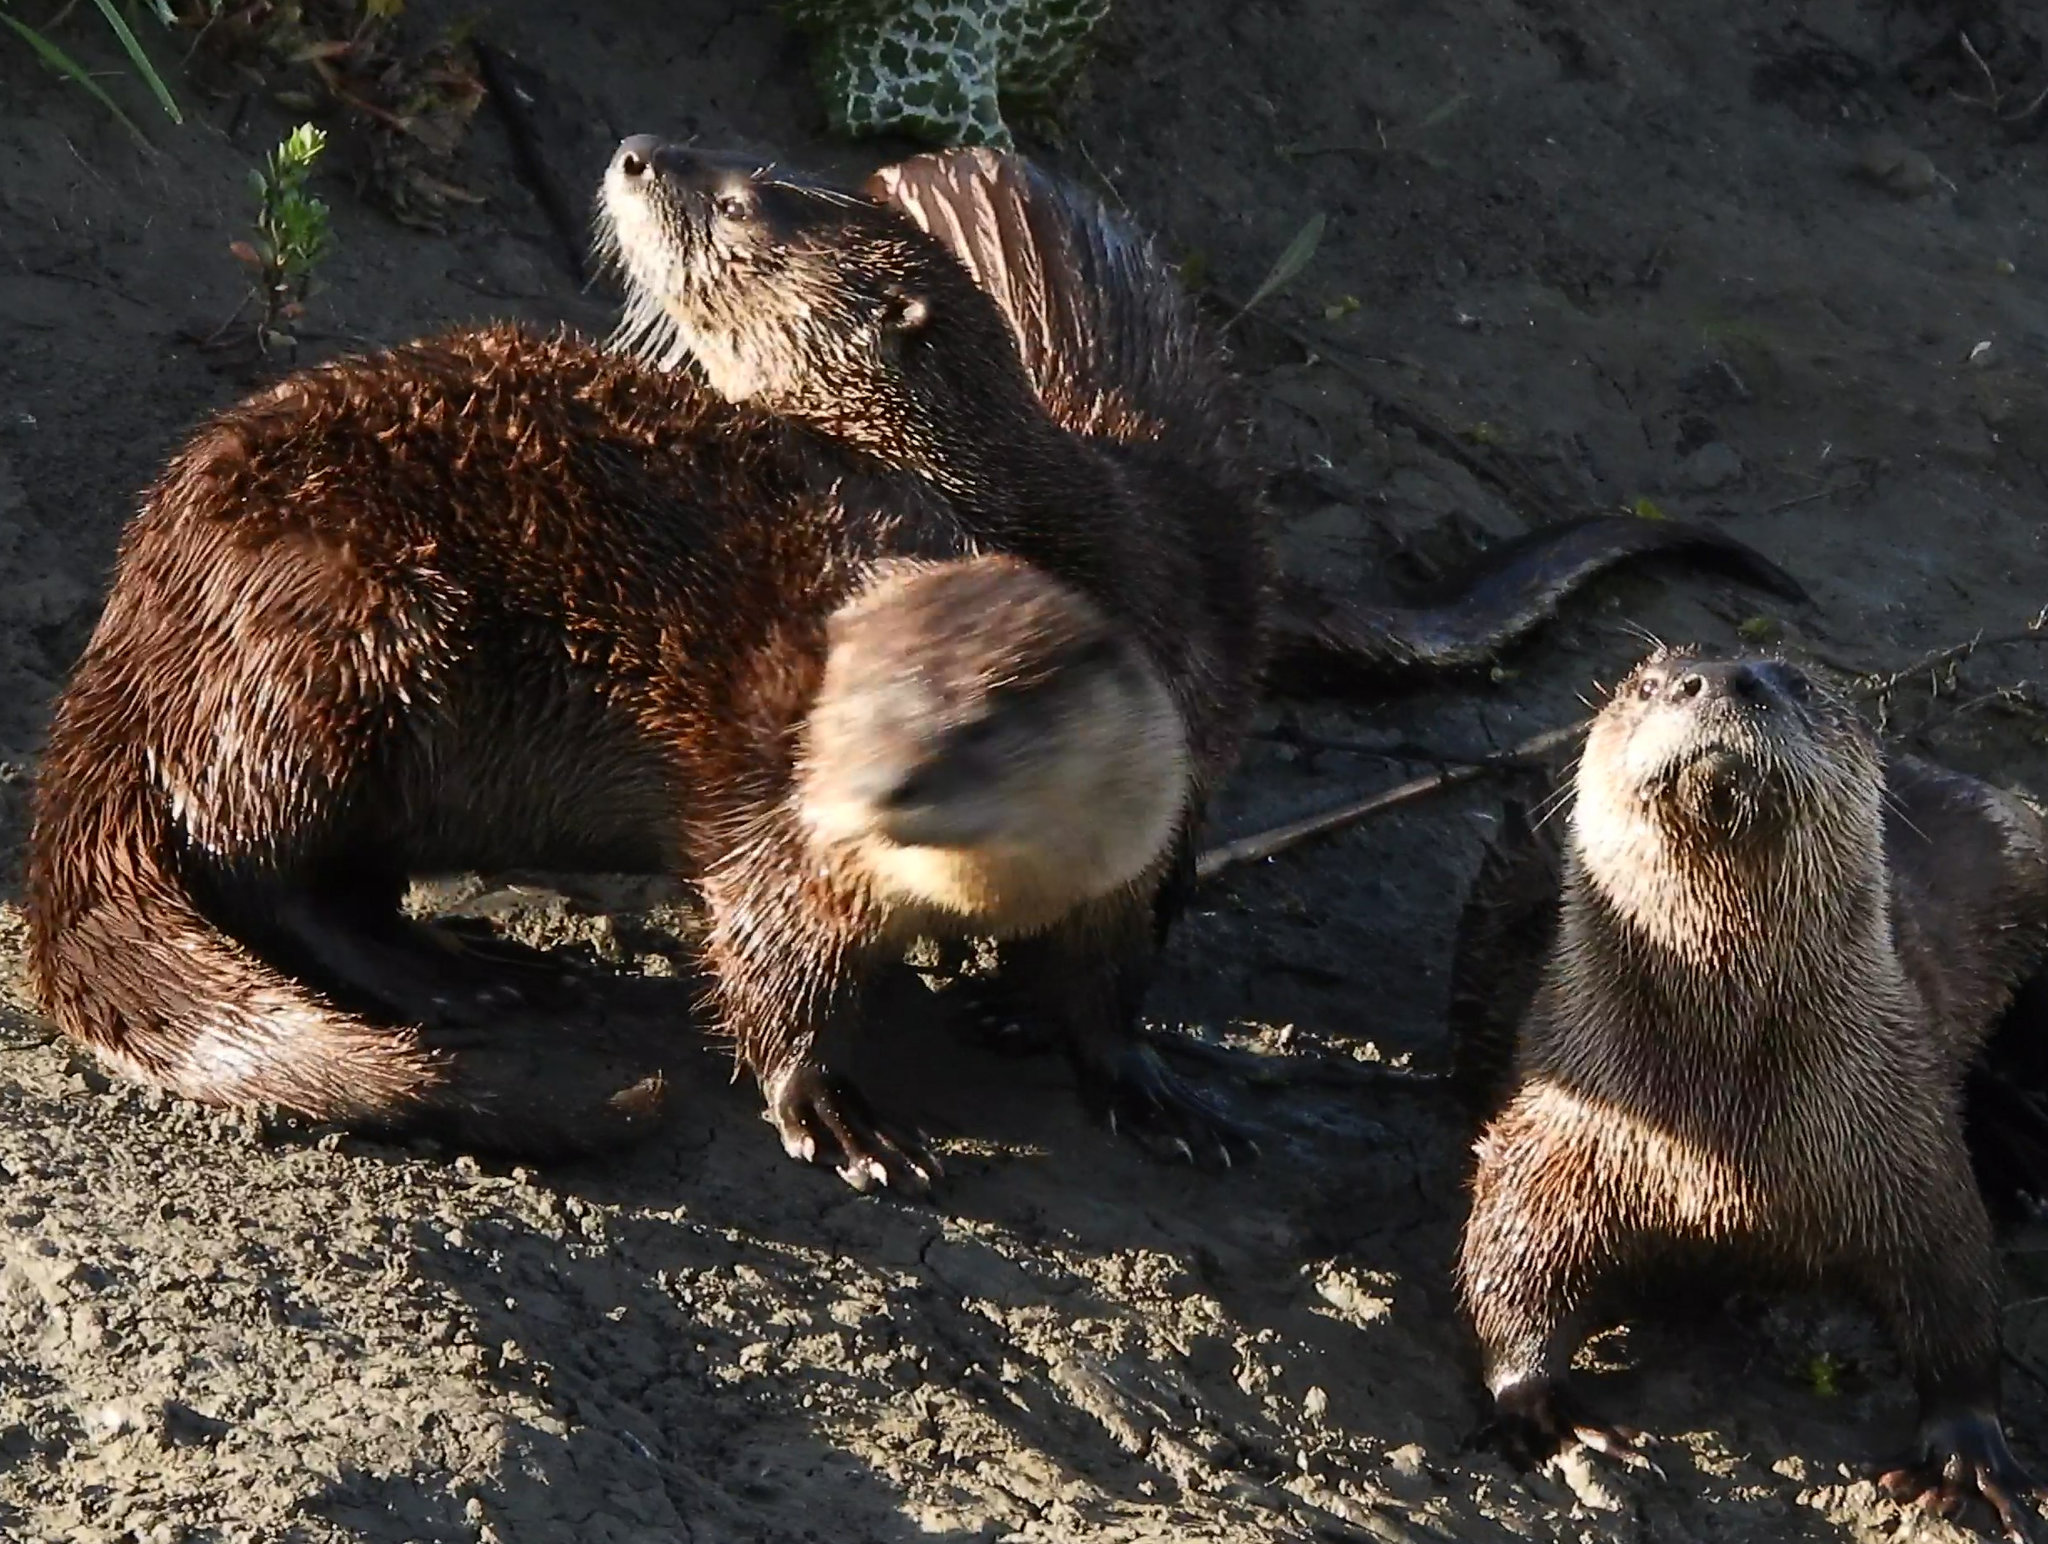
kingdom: Animalia
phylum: Chordata
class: Mammalia
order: Carnivora
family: Mustelidae
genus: Lontra
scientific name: Lontra canadensis
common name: North american river otter
